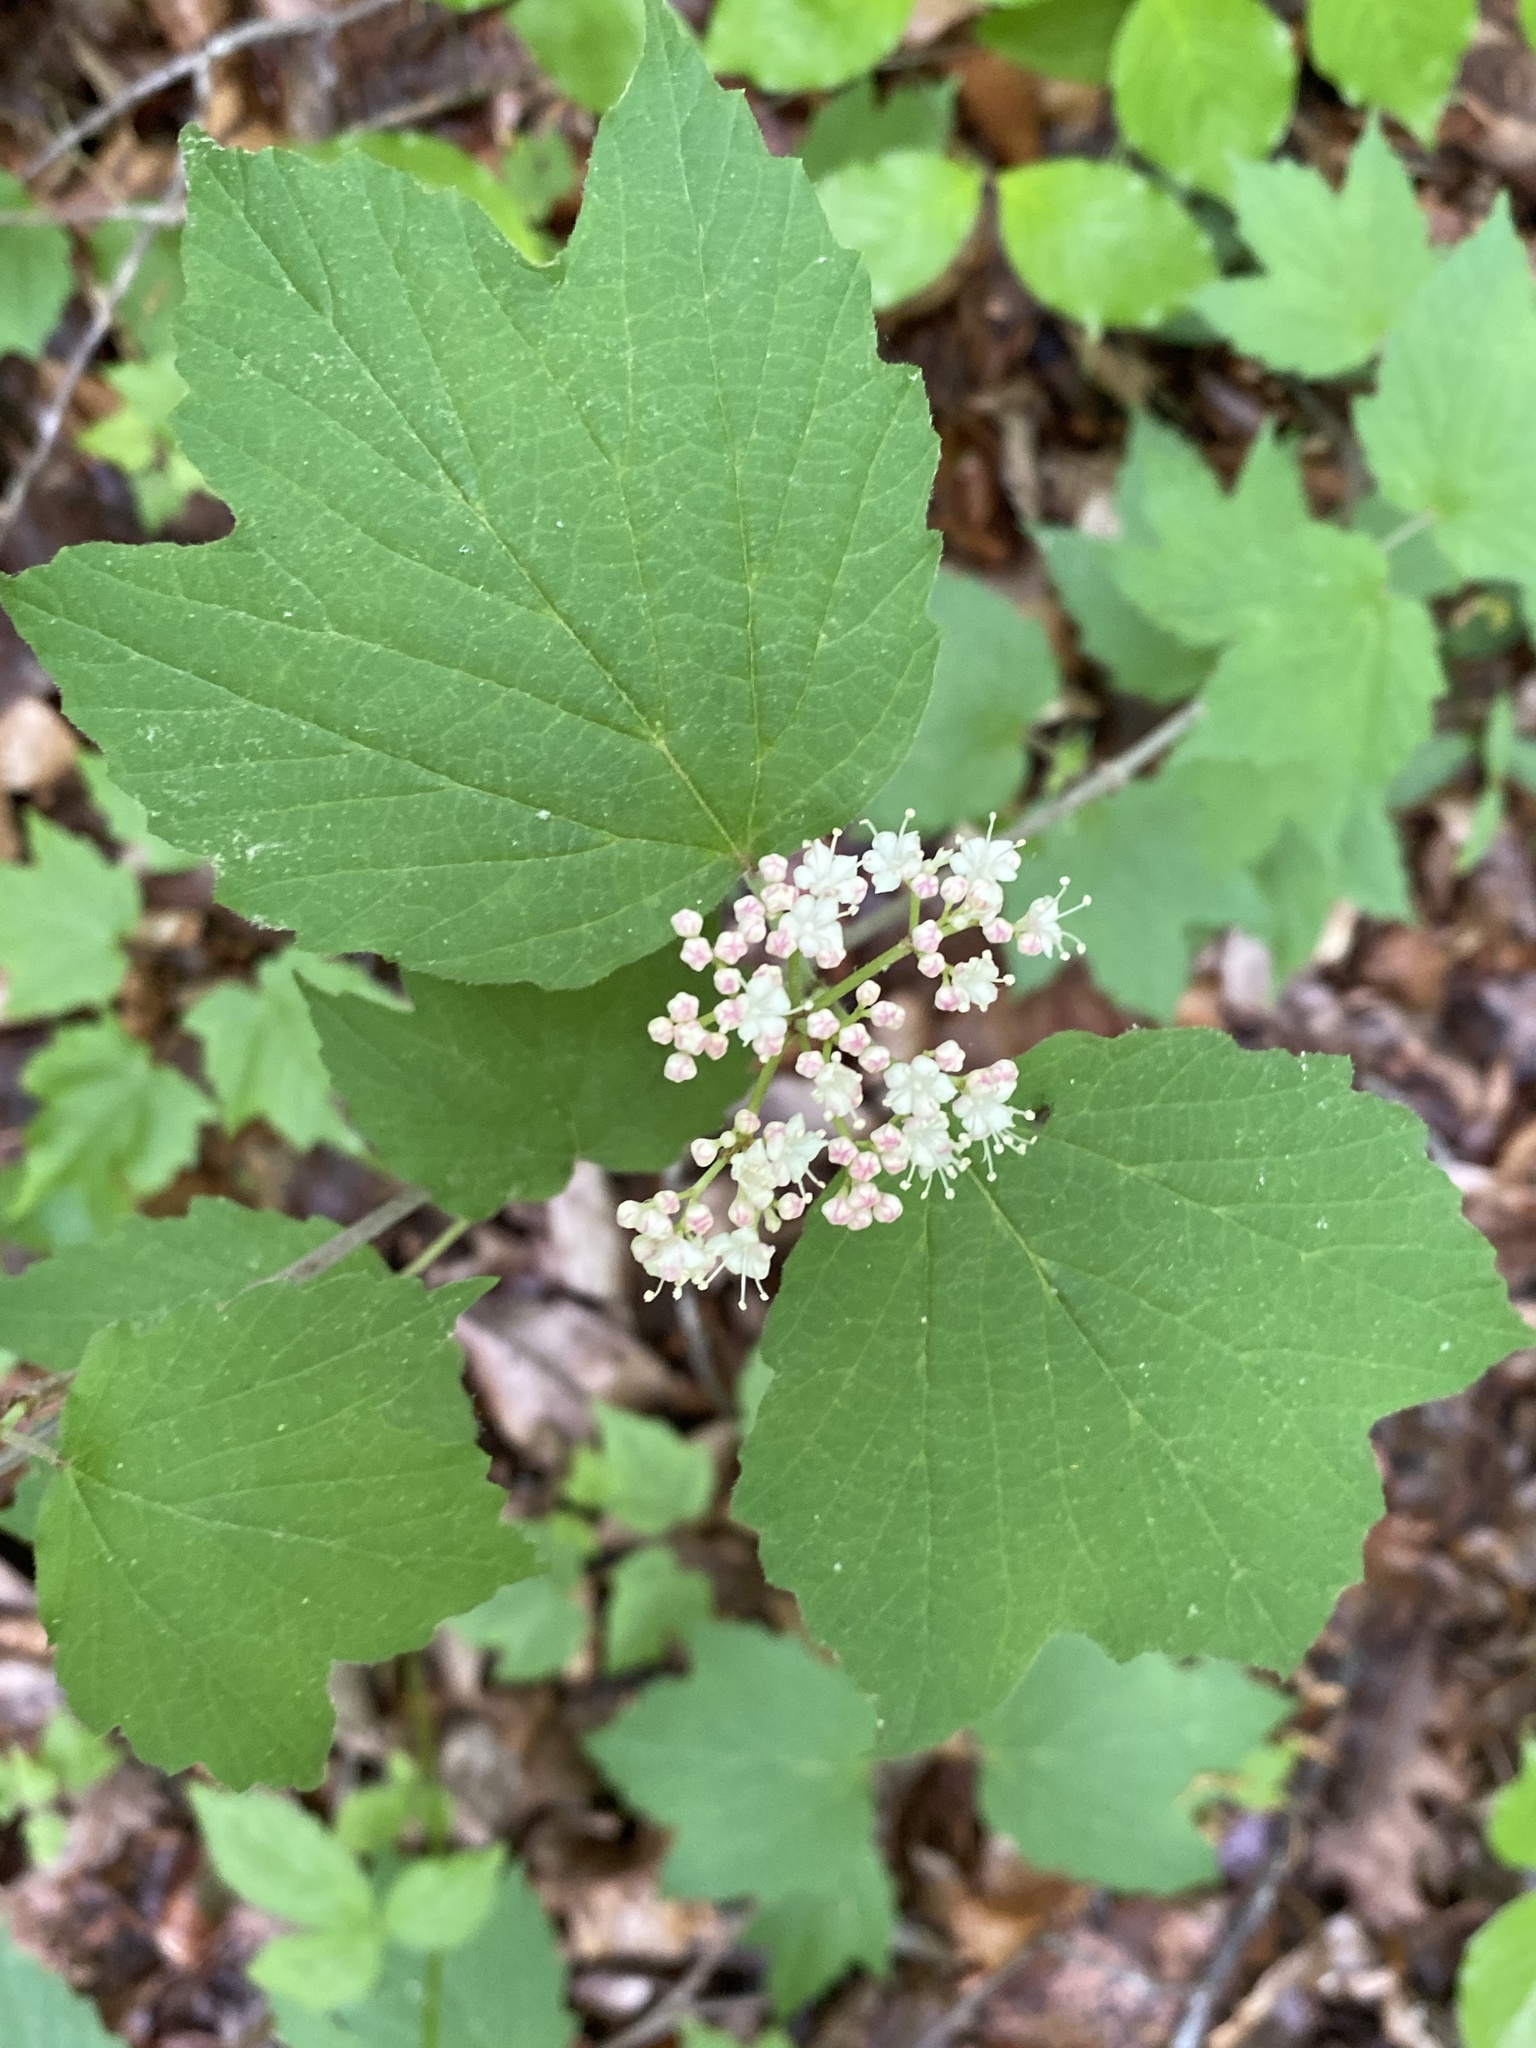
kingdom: Plantae
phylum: Tracheophyta
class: Magnoliopsida
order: Dipsacales
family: Viburnaceae
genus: Viburnum
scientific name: Viburnum acerifolium
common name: Dockmackie
